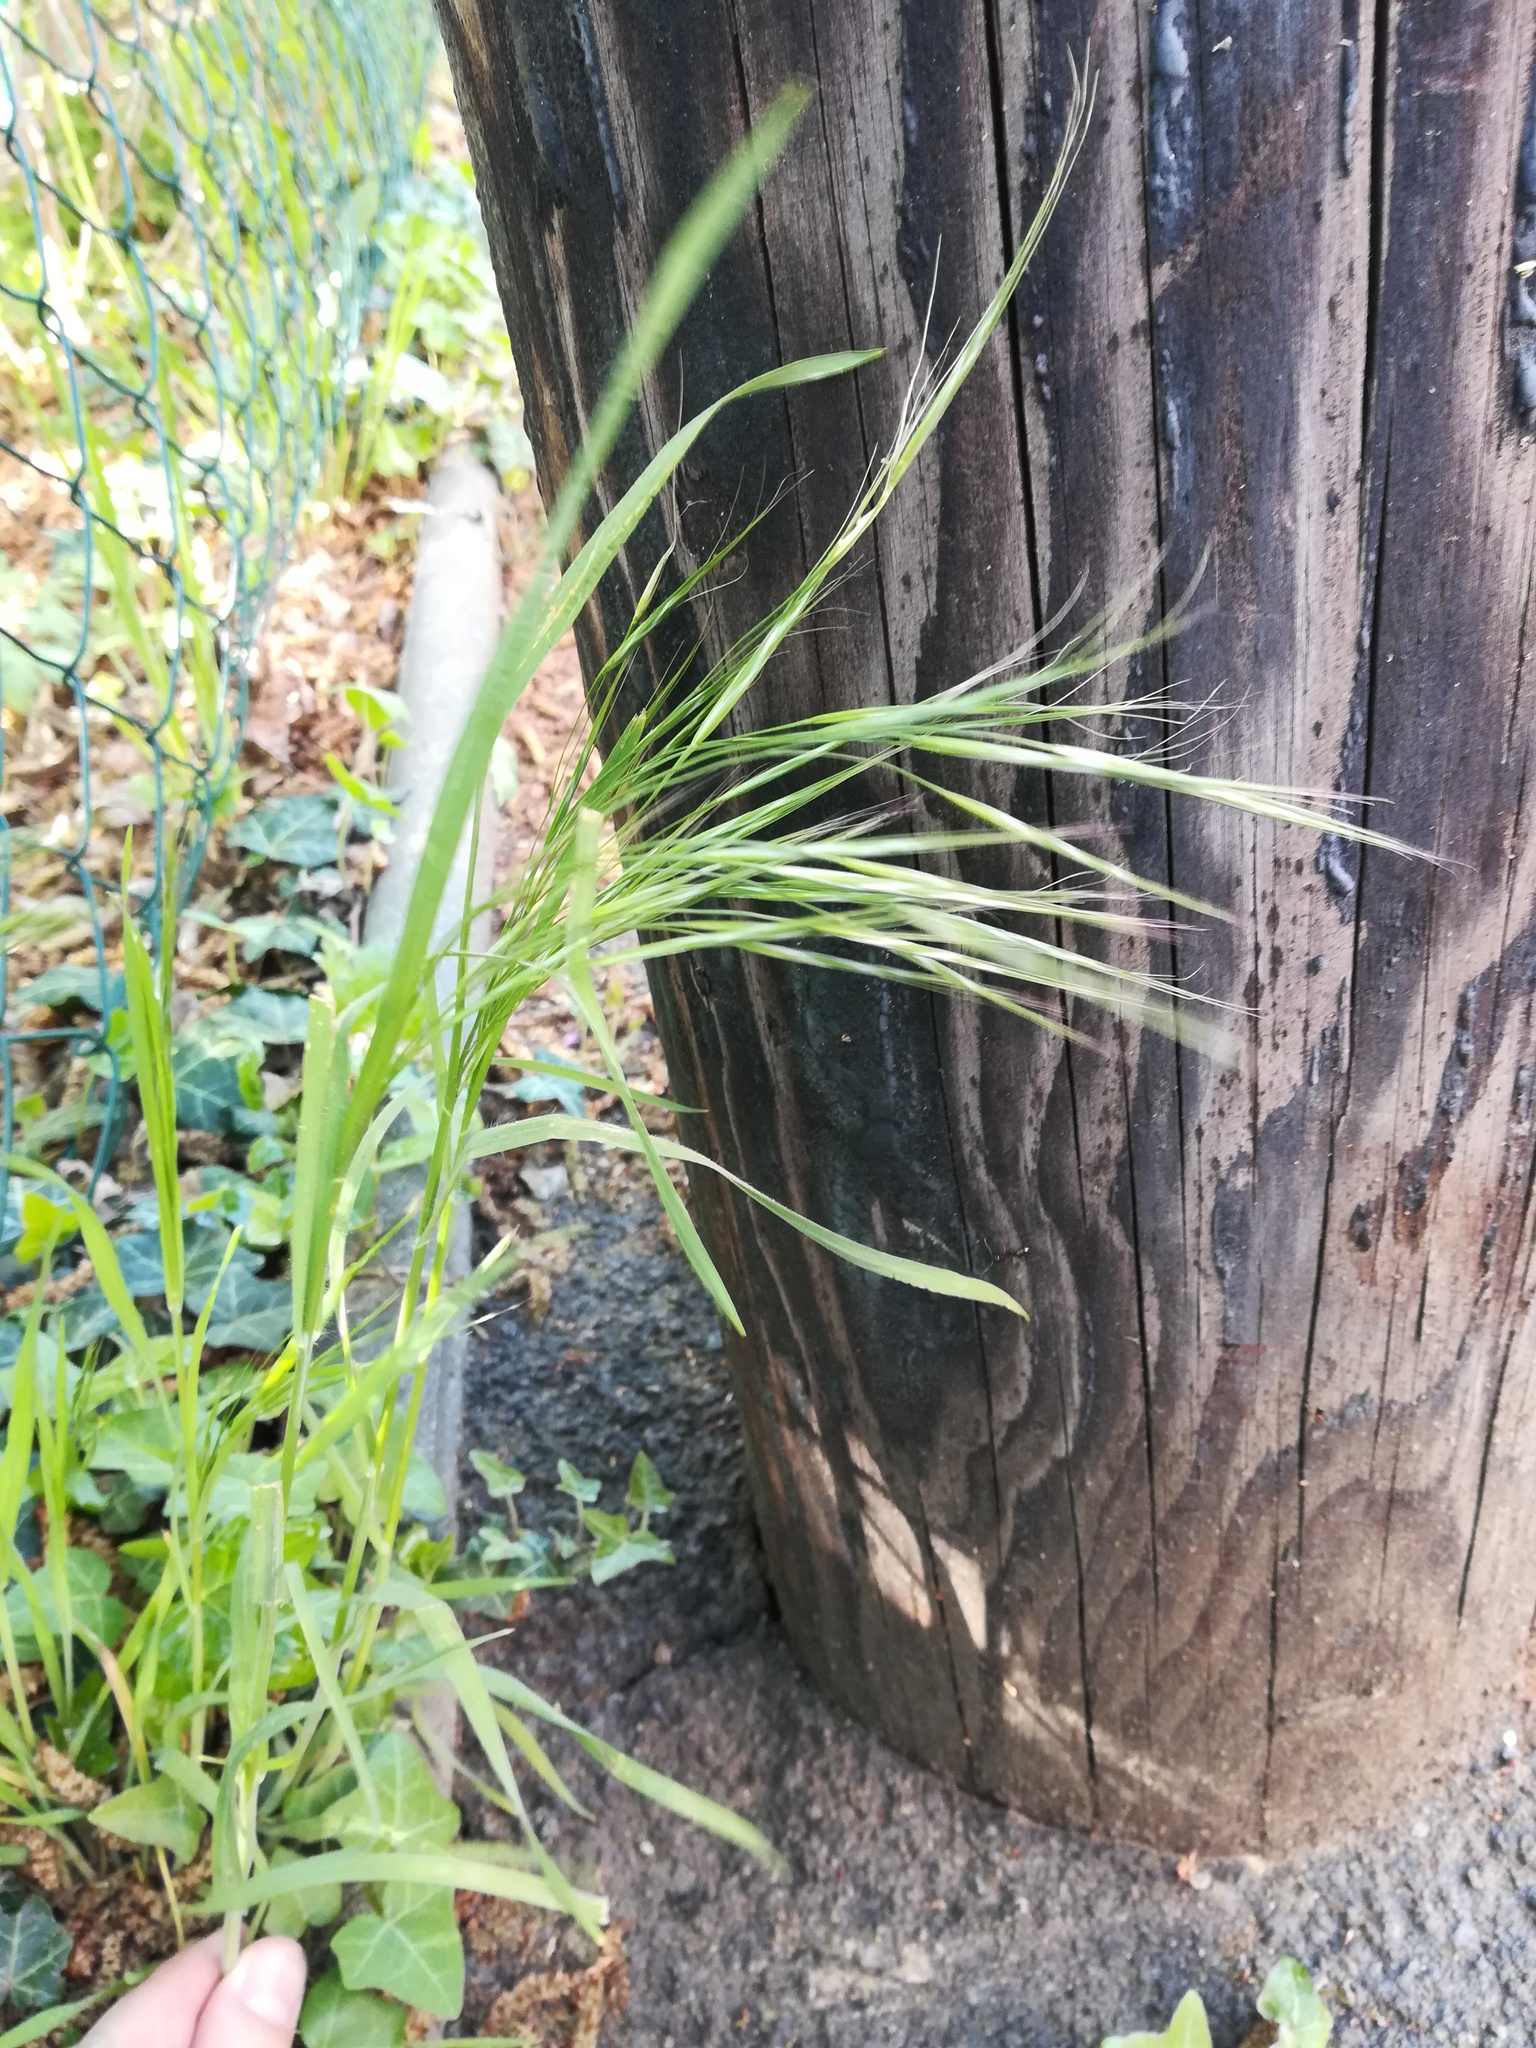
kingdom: Plantae
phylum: Tracheophyta
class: Liliopsida
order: Poales
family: Poaceae
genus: Bromus
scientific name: Bromus sterilis
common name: Poverty brome
